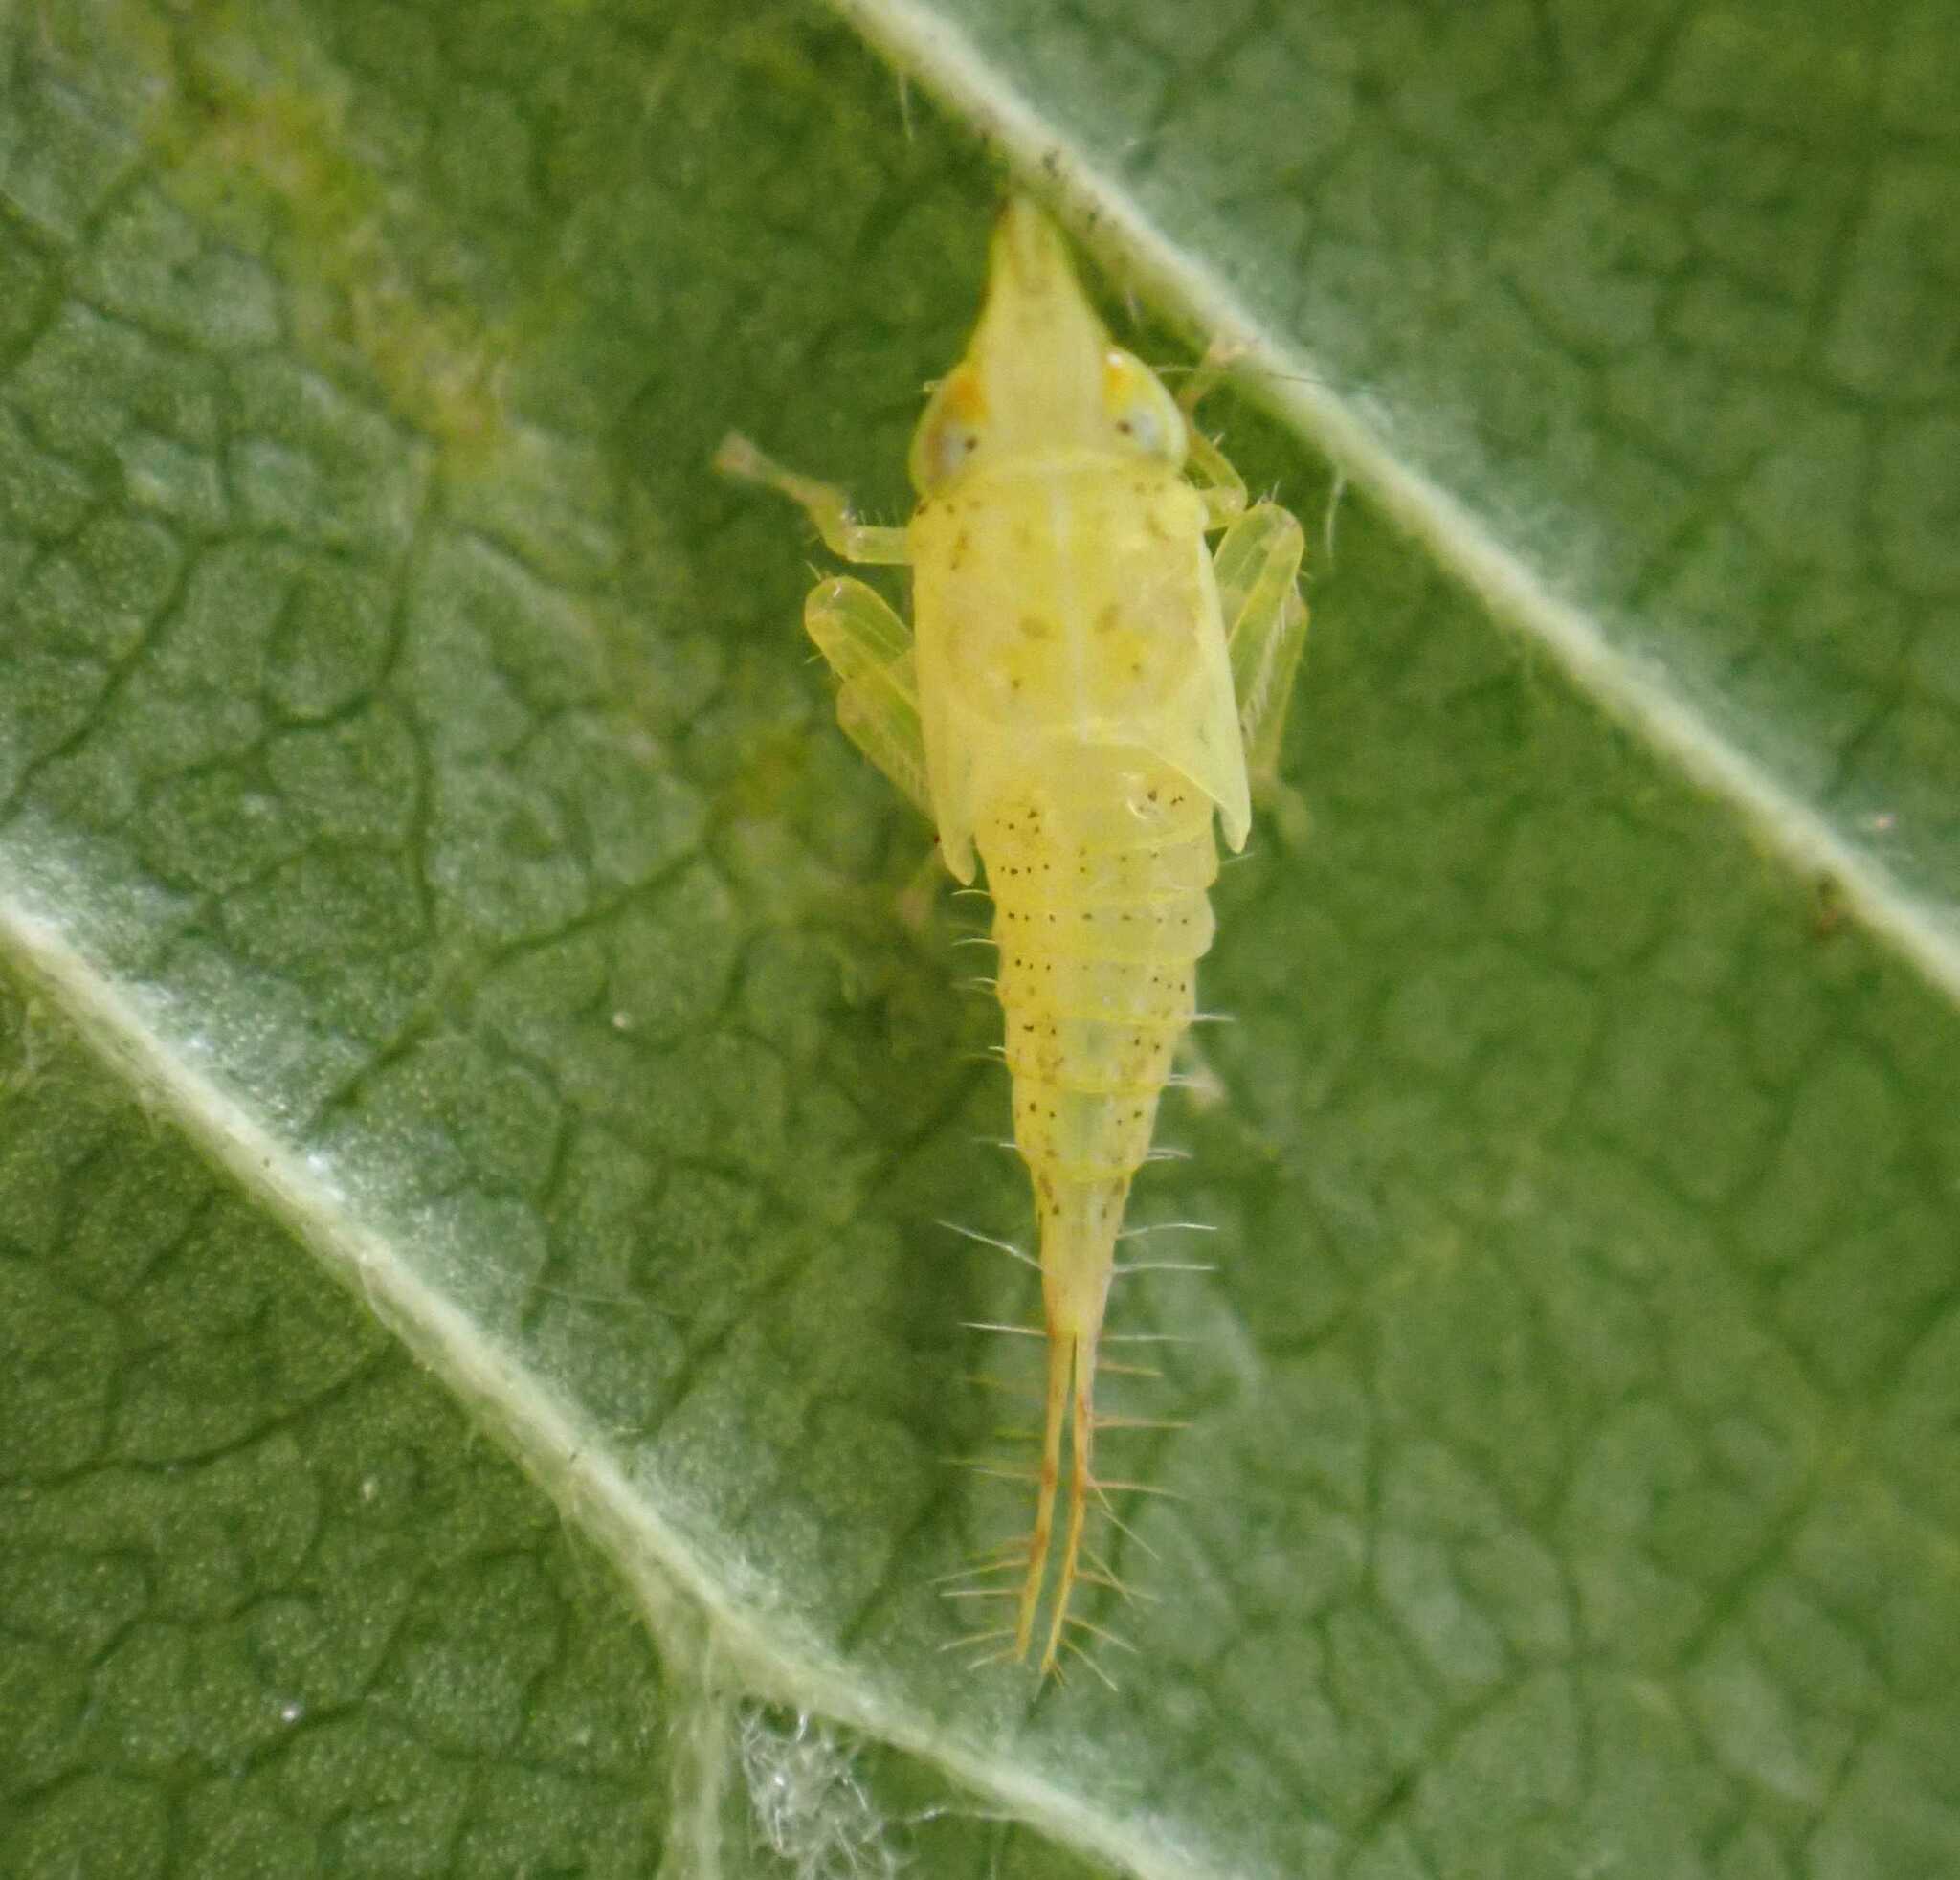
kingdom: Animalia
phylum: Arthropoda
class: Insecta
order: Hemiptera
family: Cicadellidae
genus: Japananus
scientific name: Japananus hyalinus
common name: The japanese maple leafhopper
